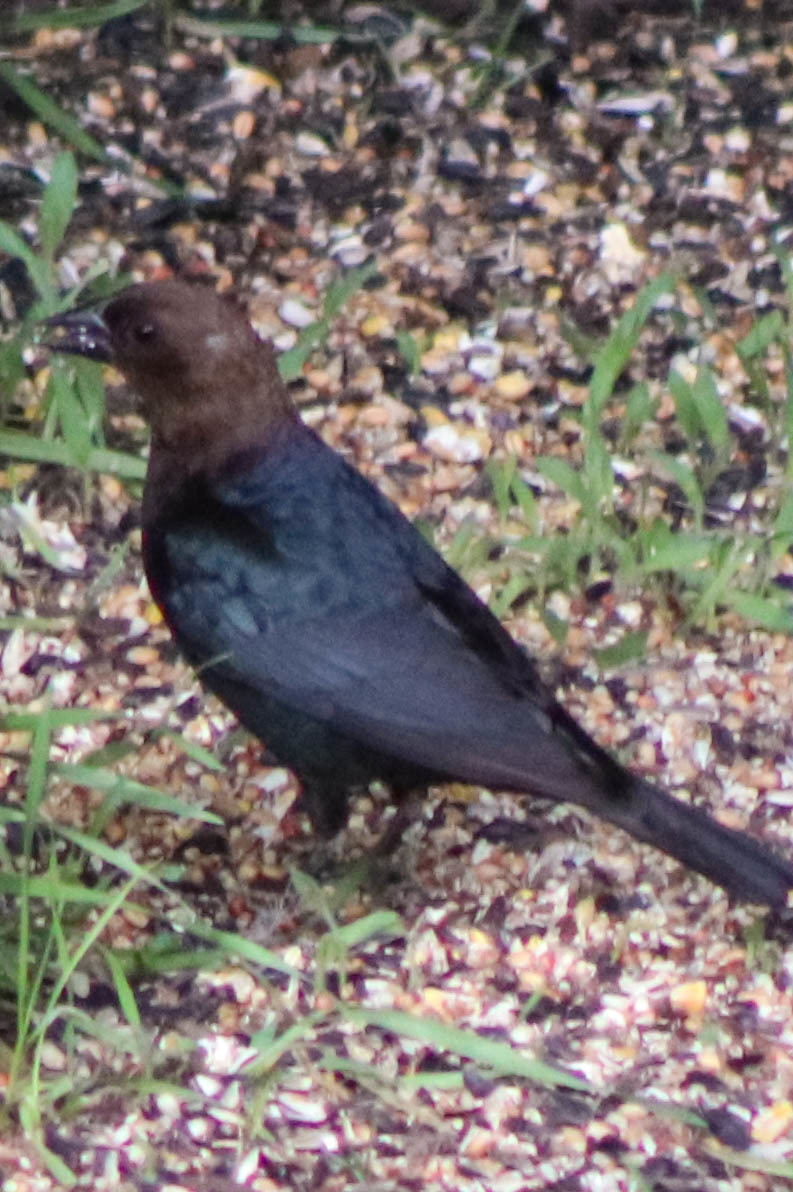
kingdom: Animalia
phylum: Chordata
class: Aves
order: Passeriformes
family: Icteridae
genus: Molothrus
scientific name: Molothrus ater
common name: Brown-headed cowbird
